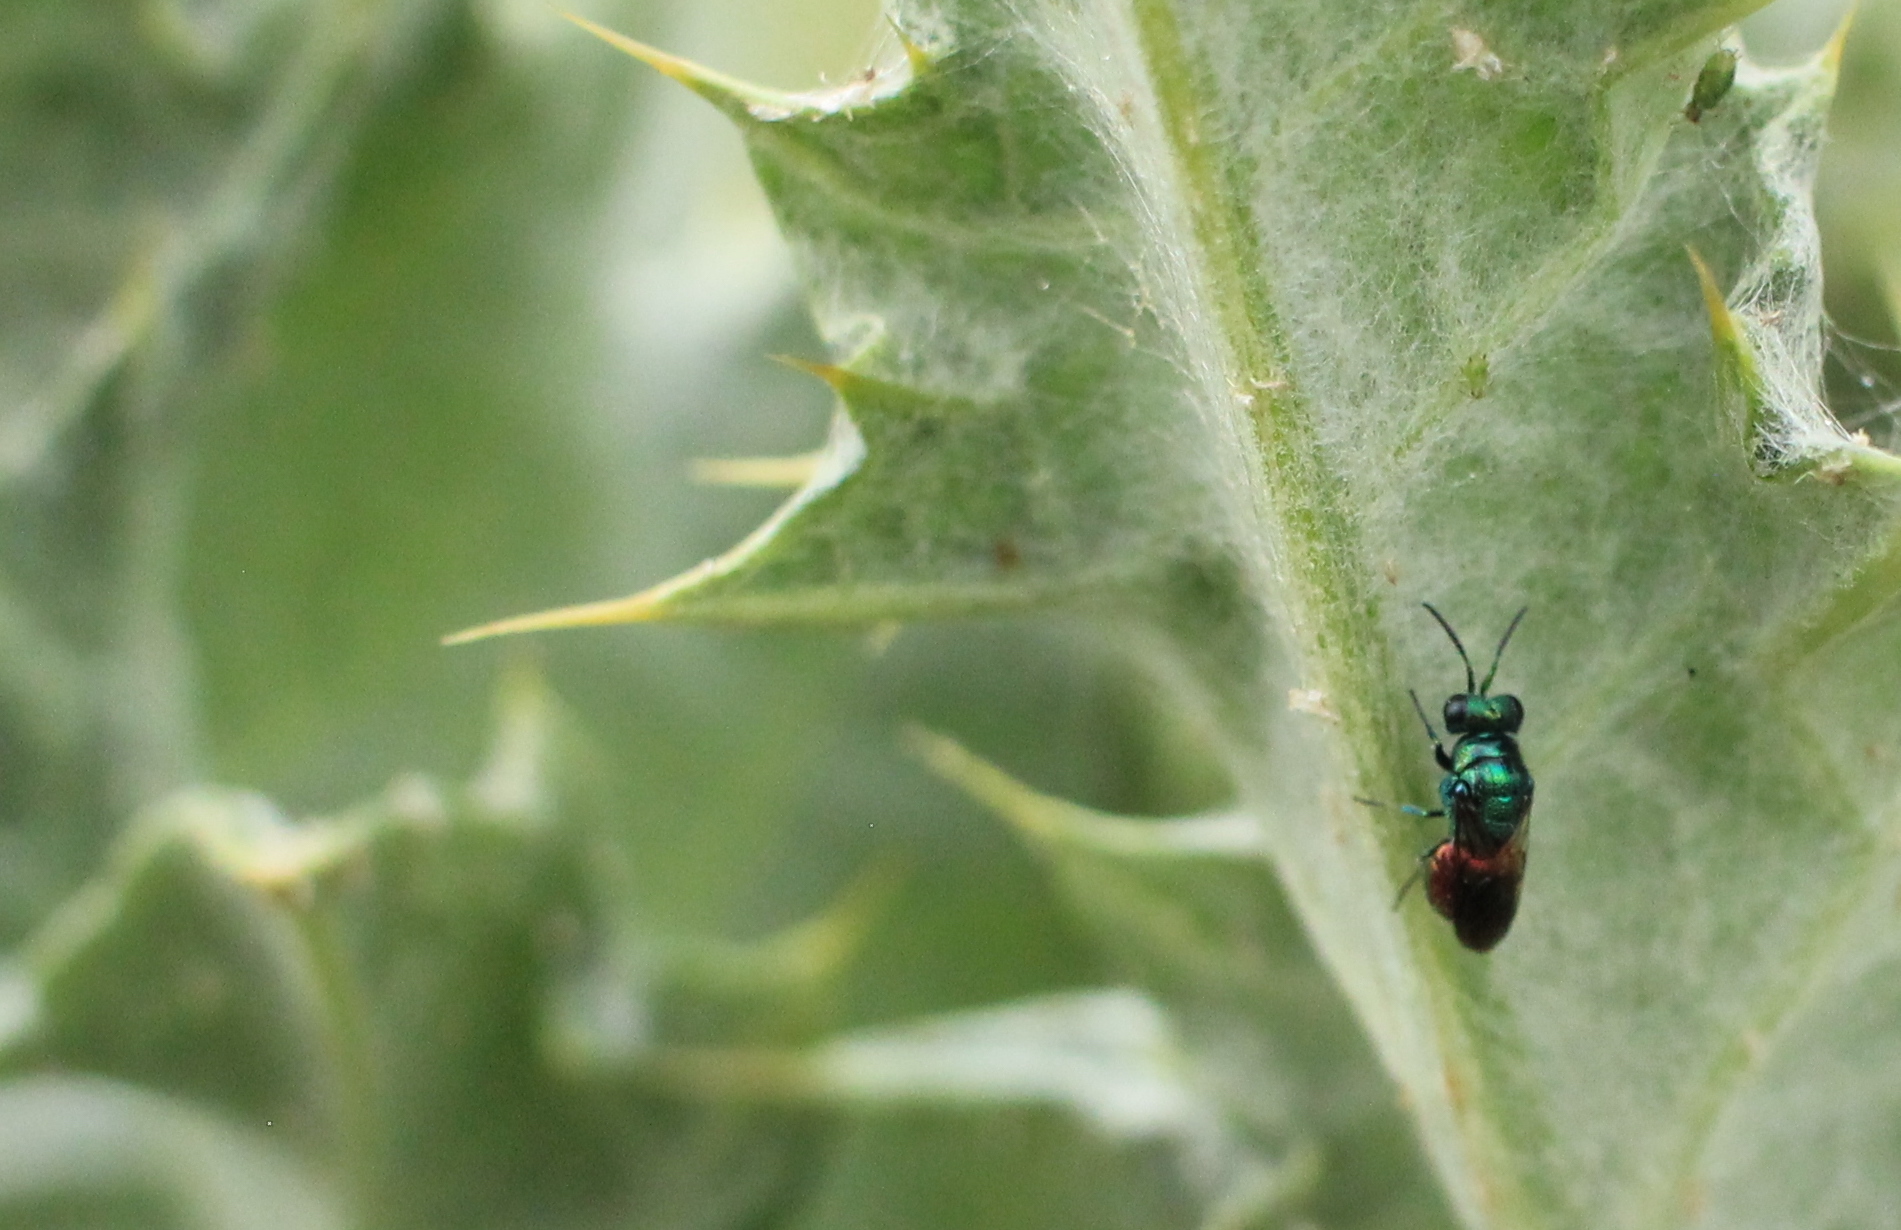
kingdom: Animalia
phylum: Arthropoda
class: Insecta
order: Hymenoptera
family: Chrysididae
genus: Pseudomalus
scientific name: Pseudomalus auratus
